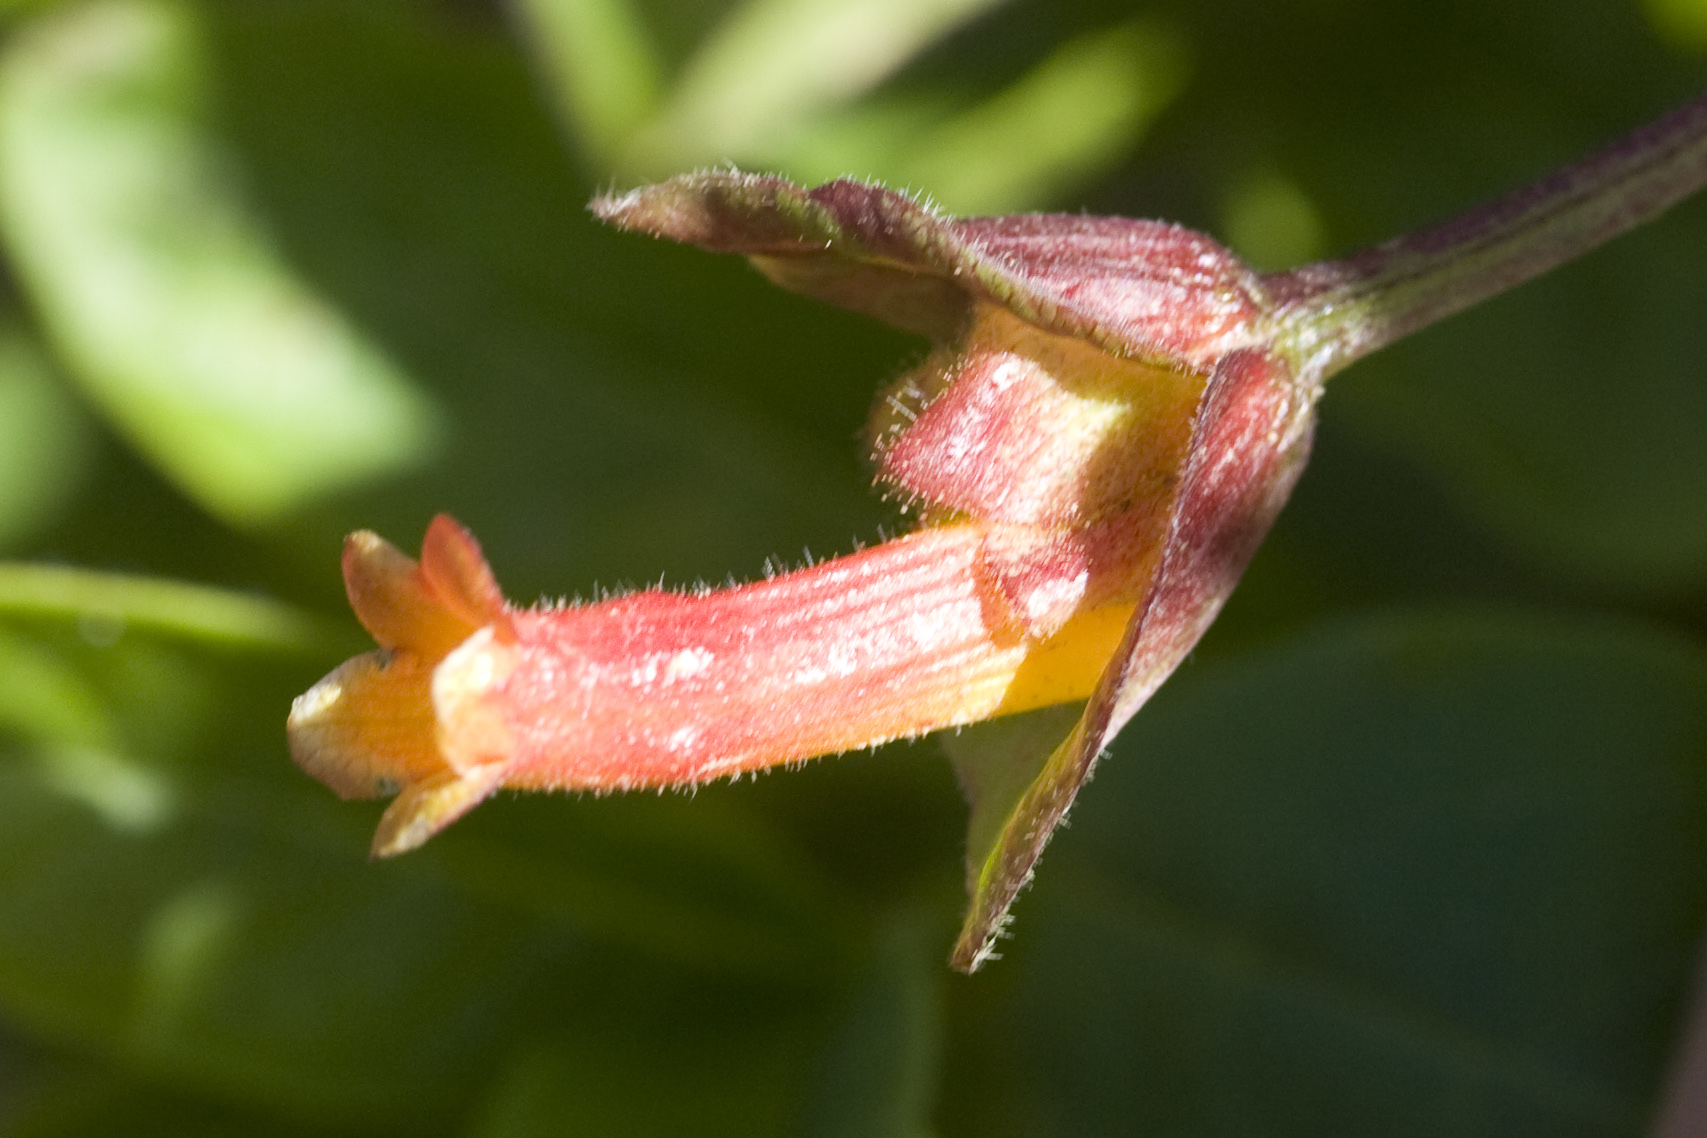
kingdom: Plantae
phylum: Tracheophyta
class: Magnoliopsida
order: Dipsacales
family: Caprifoliaceae
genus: Lonicera
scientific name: Lonicera involucrata
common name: Californian honeysuckle
